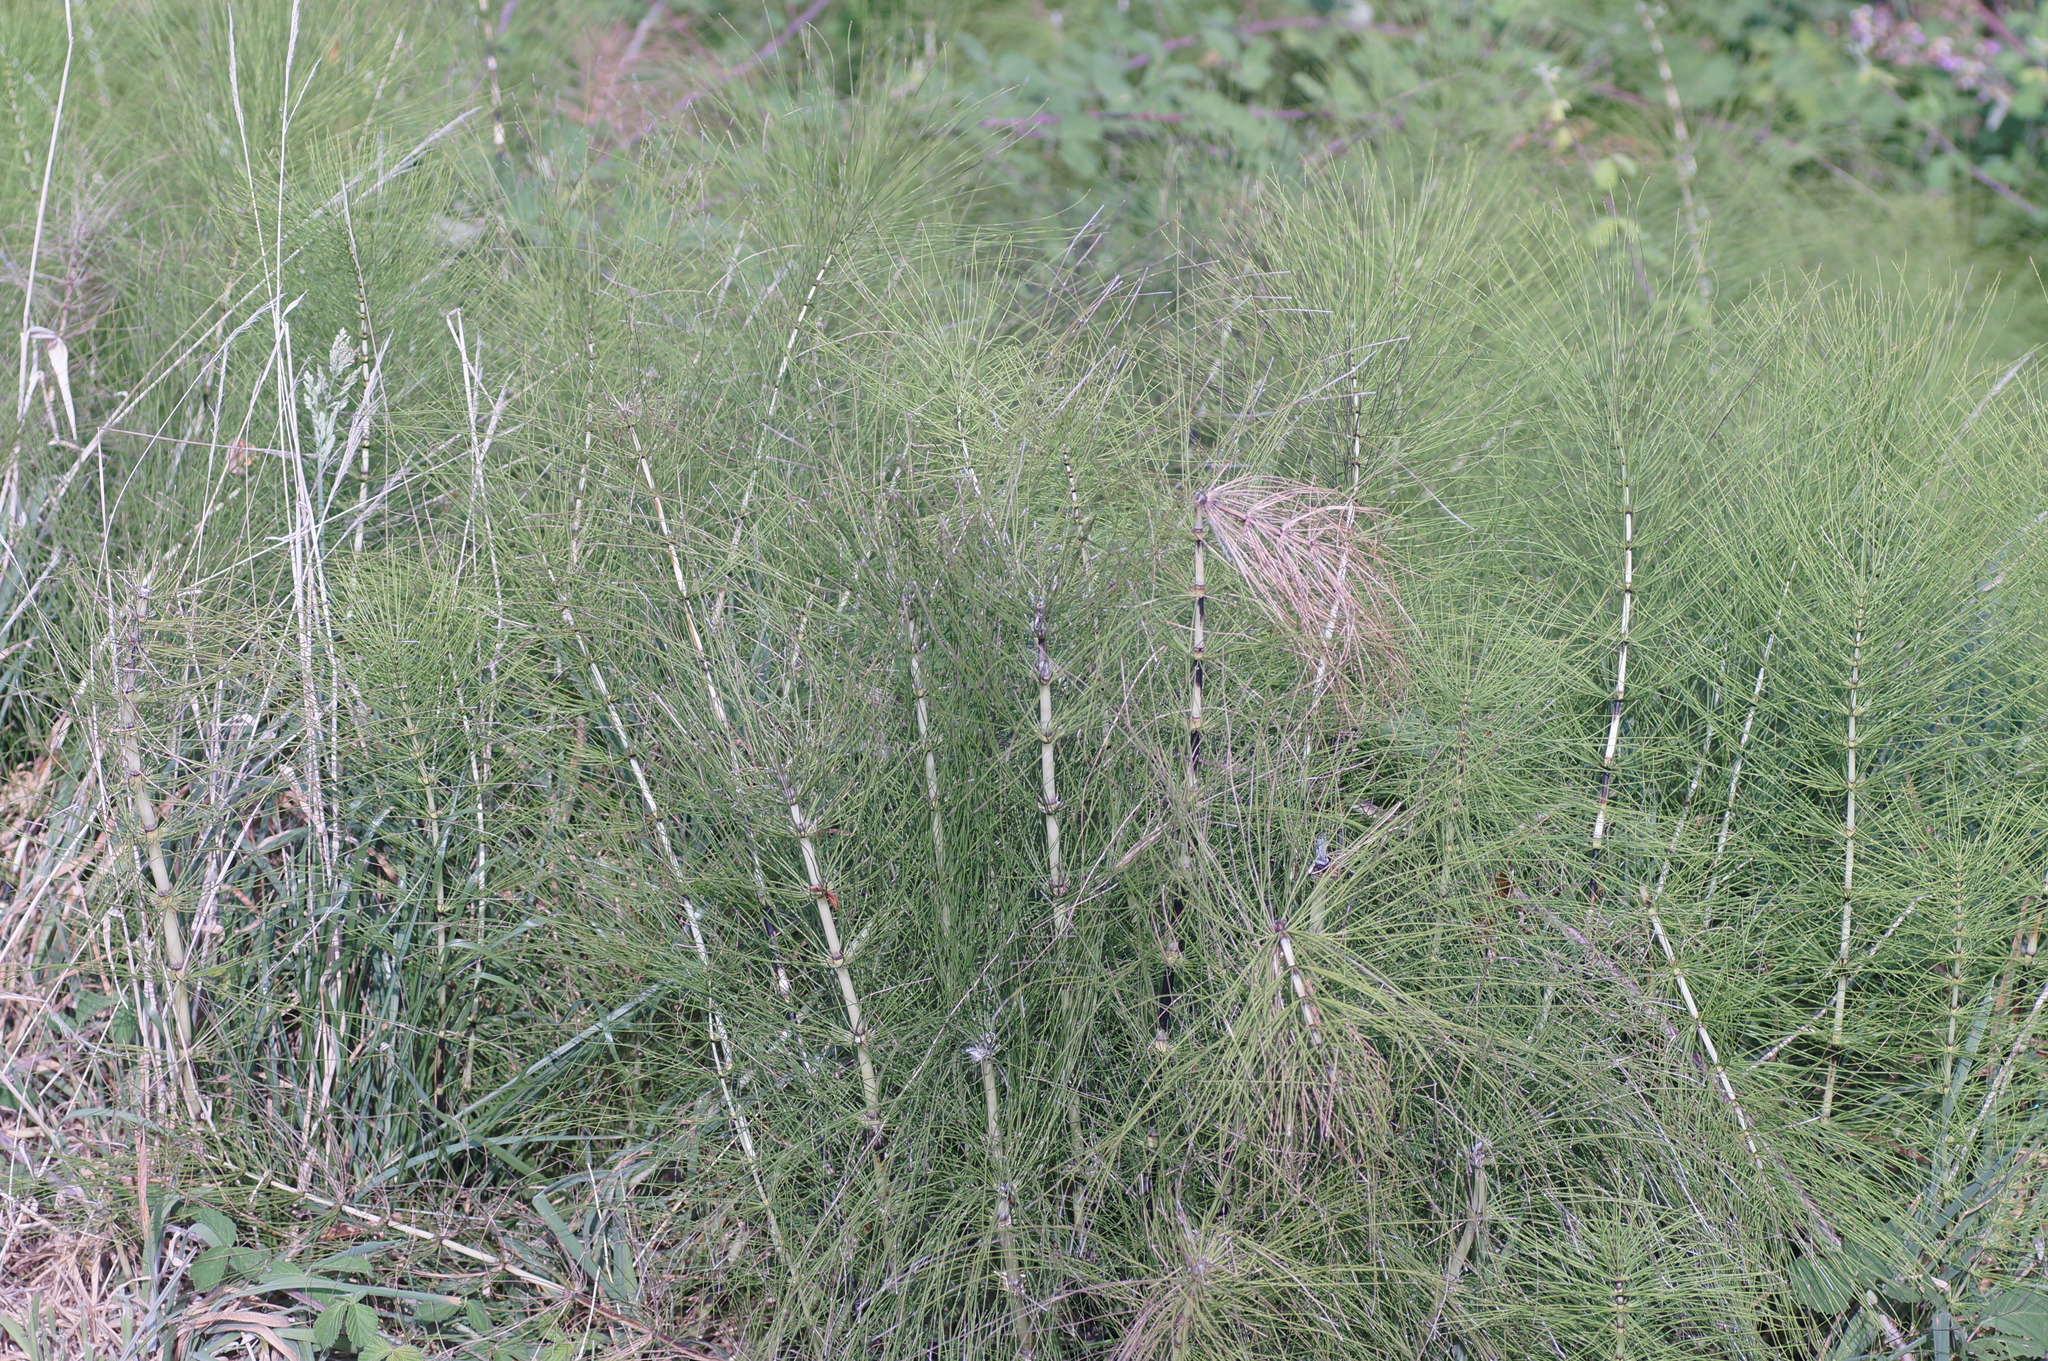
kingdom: Plantae
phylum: Tracheophyta
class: Polypodiopsida
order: Equisetales
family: Equisetaceae
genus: Equisetum
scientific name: Equisetum telmateia
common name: Great horsetail
